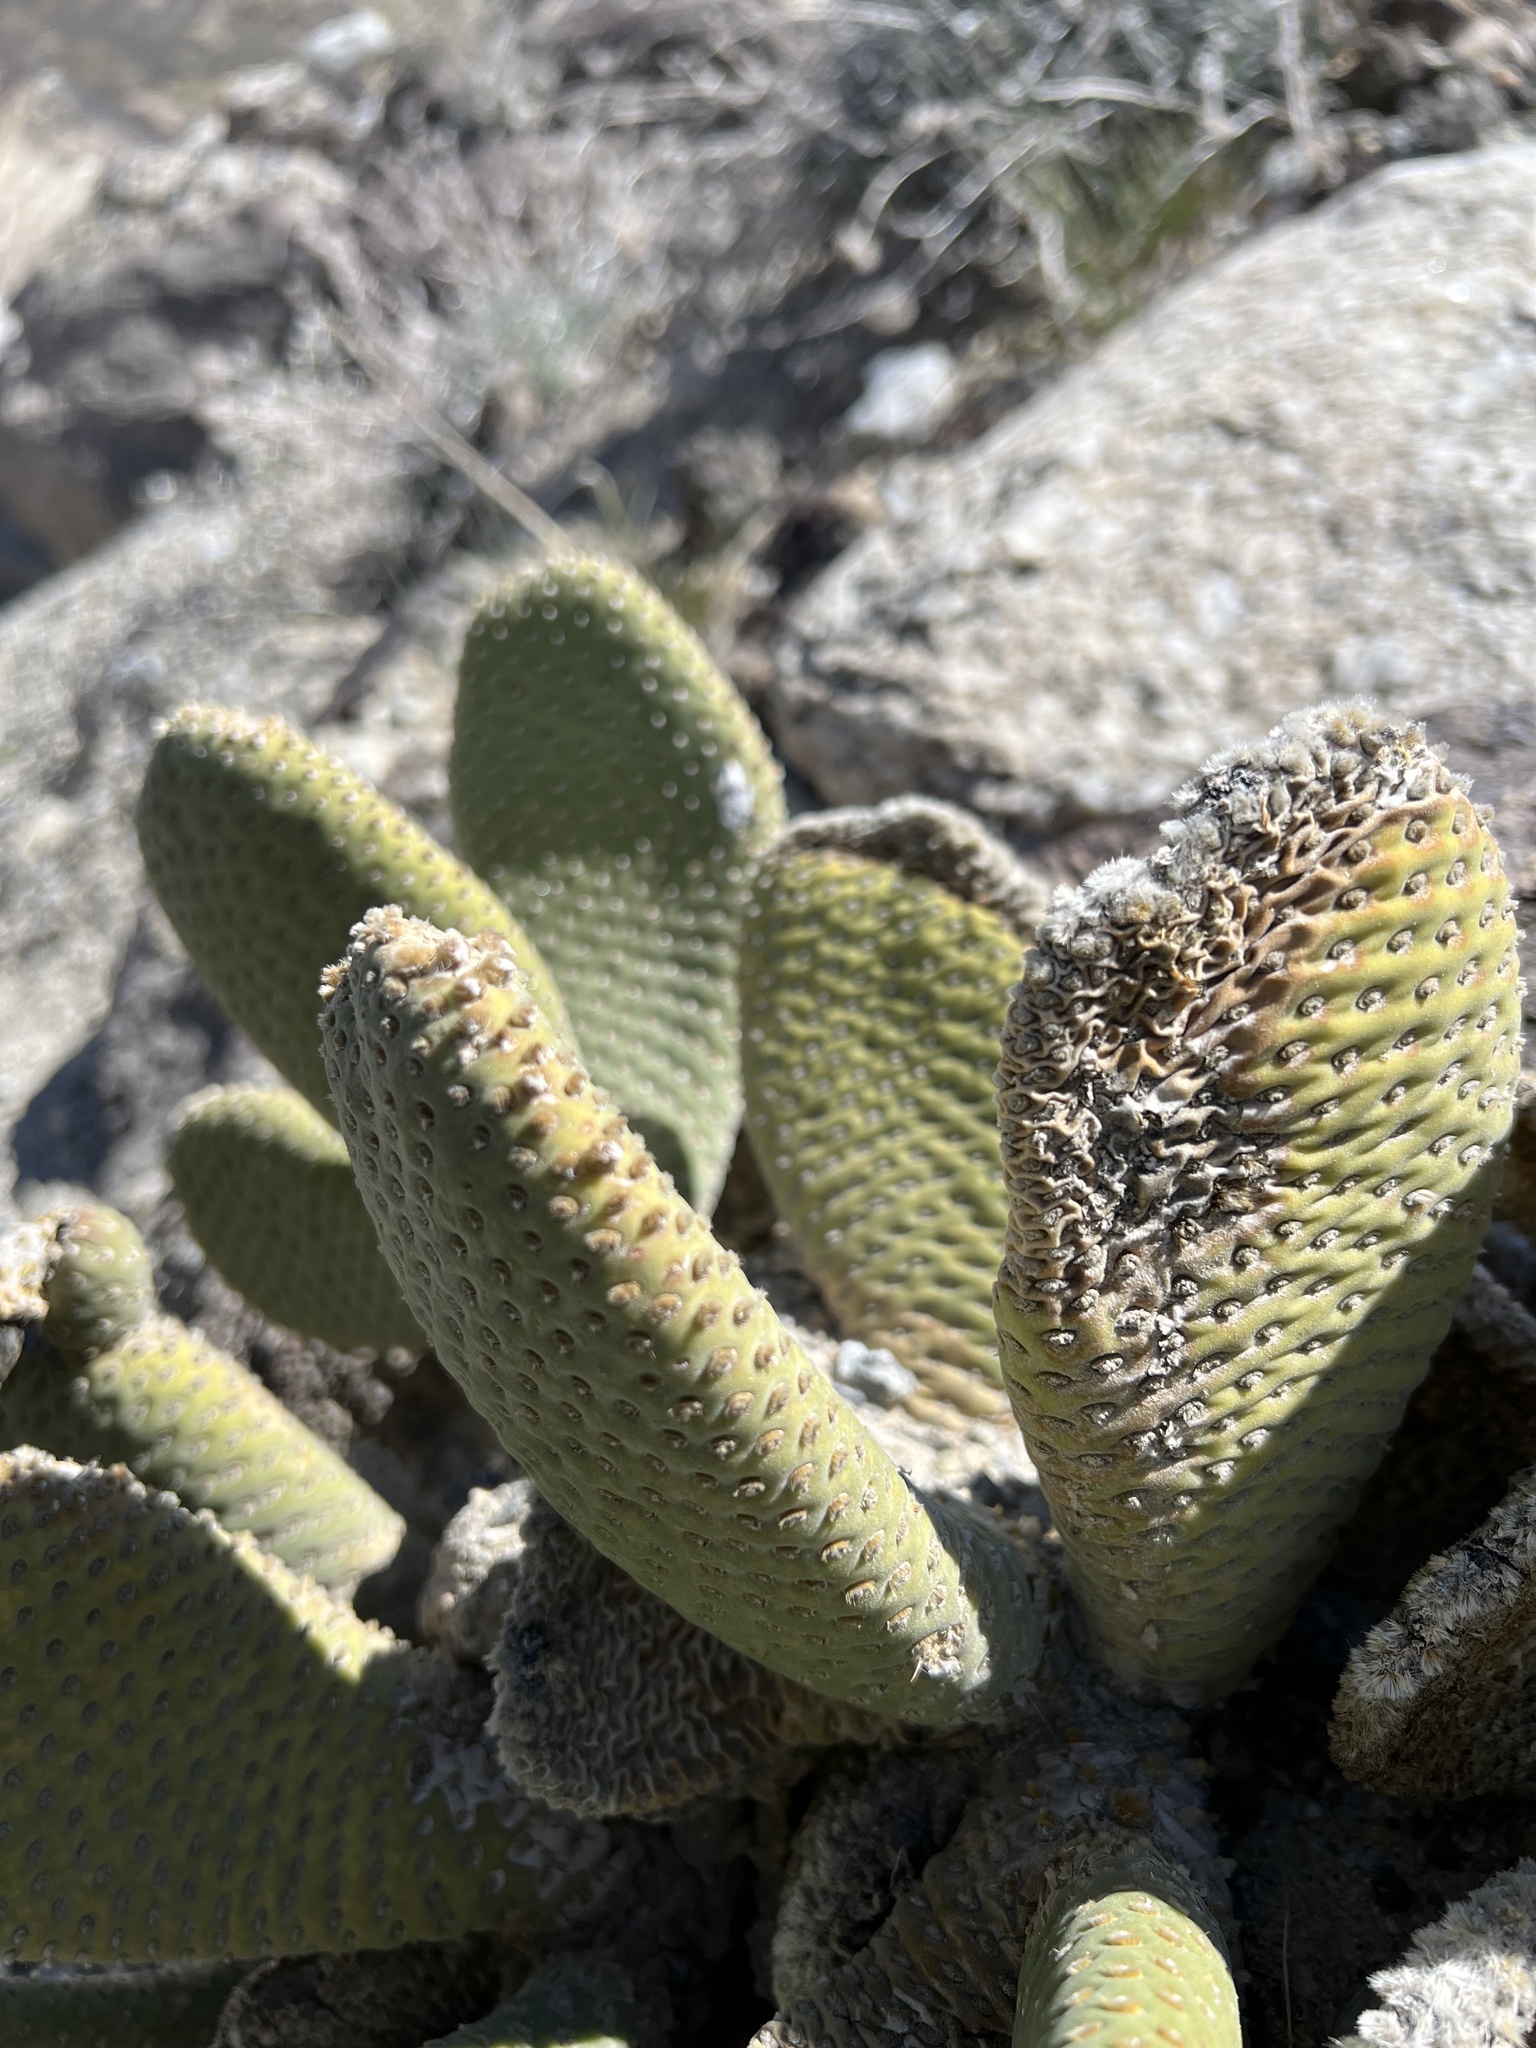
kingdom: Plantae
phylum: Tracheophyta
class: Magnoliopsida
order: Caryophyllales
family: Cactaceae
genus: Opuntia
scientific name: Opuntia basilaris
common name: Beavertail prickly-pear
